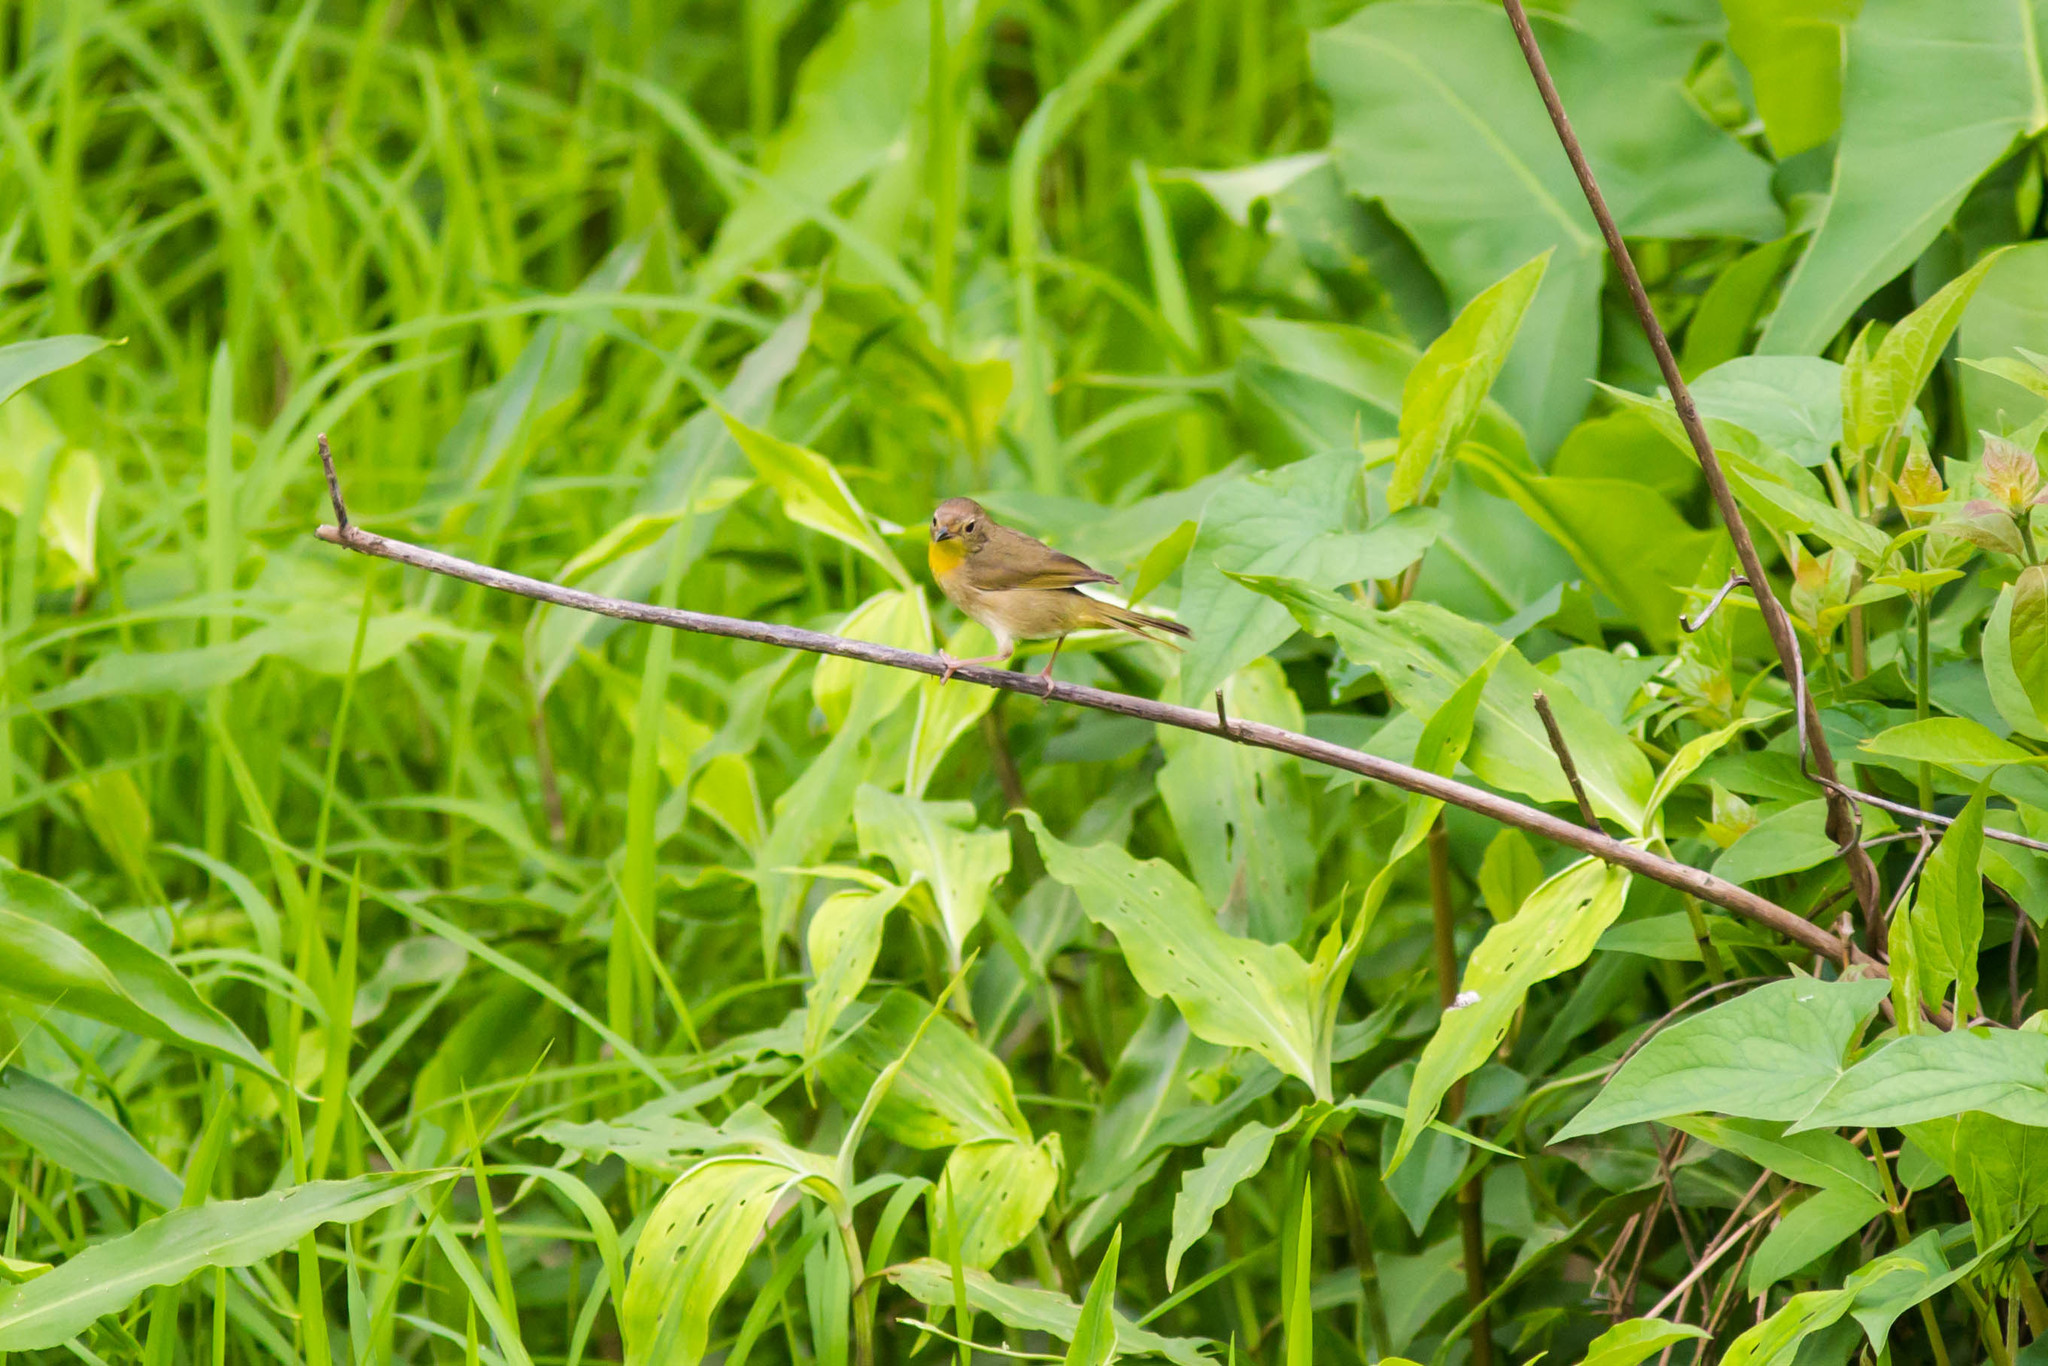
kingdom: Animalia
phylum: Chordata
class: Aves
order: Passeriformes
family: Parulidae
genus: Geothlypis
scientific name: Geothlypis trichas
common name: Common yellowthroat
